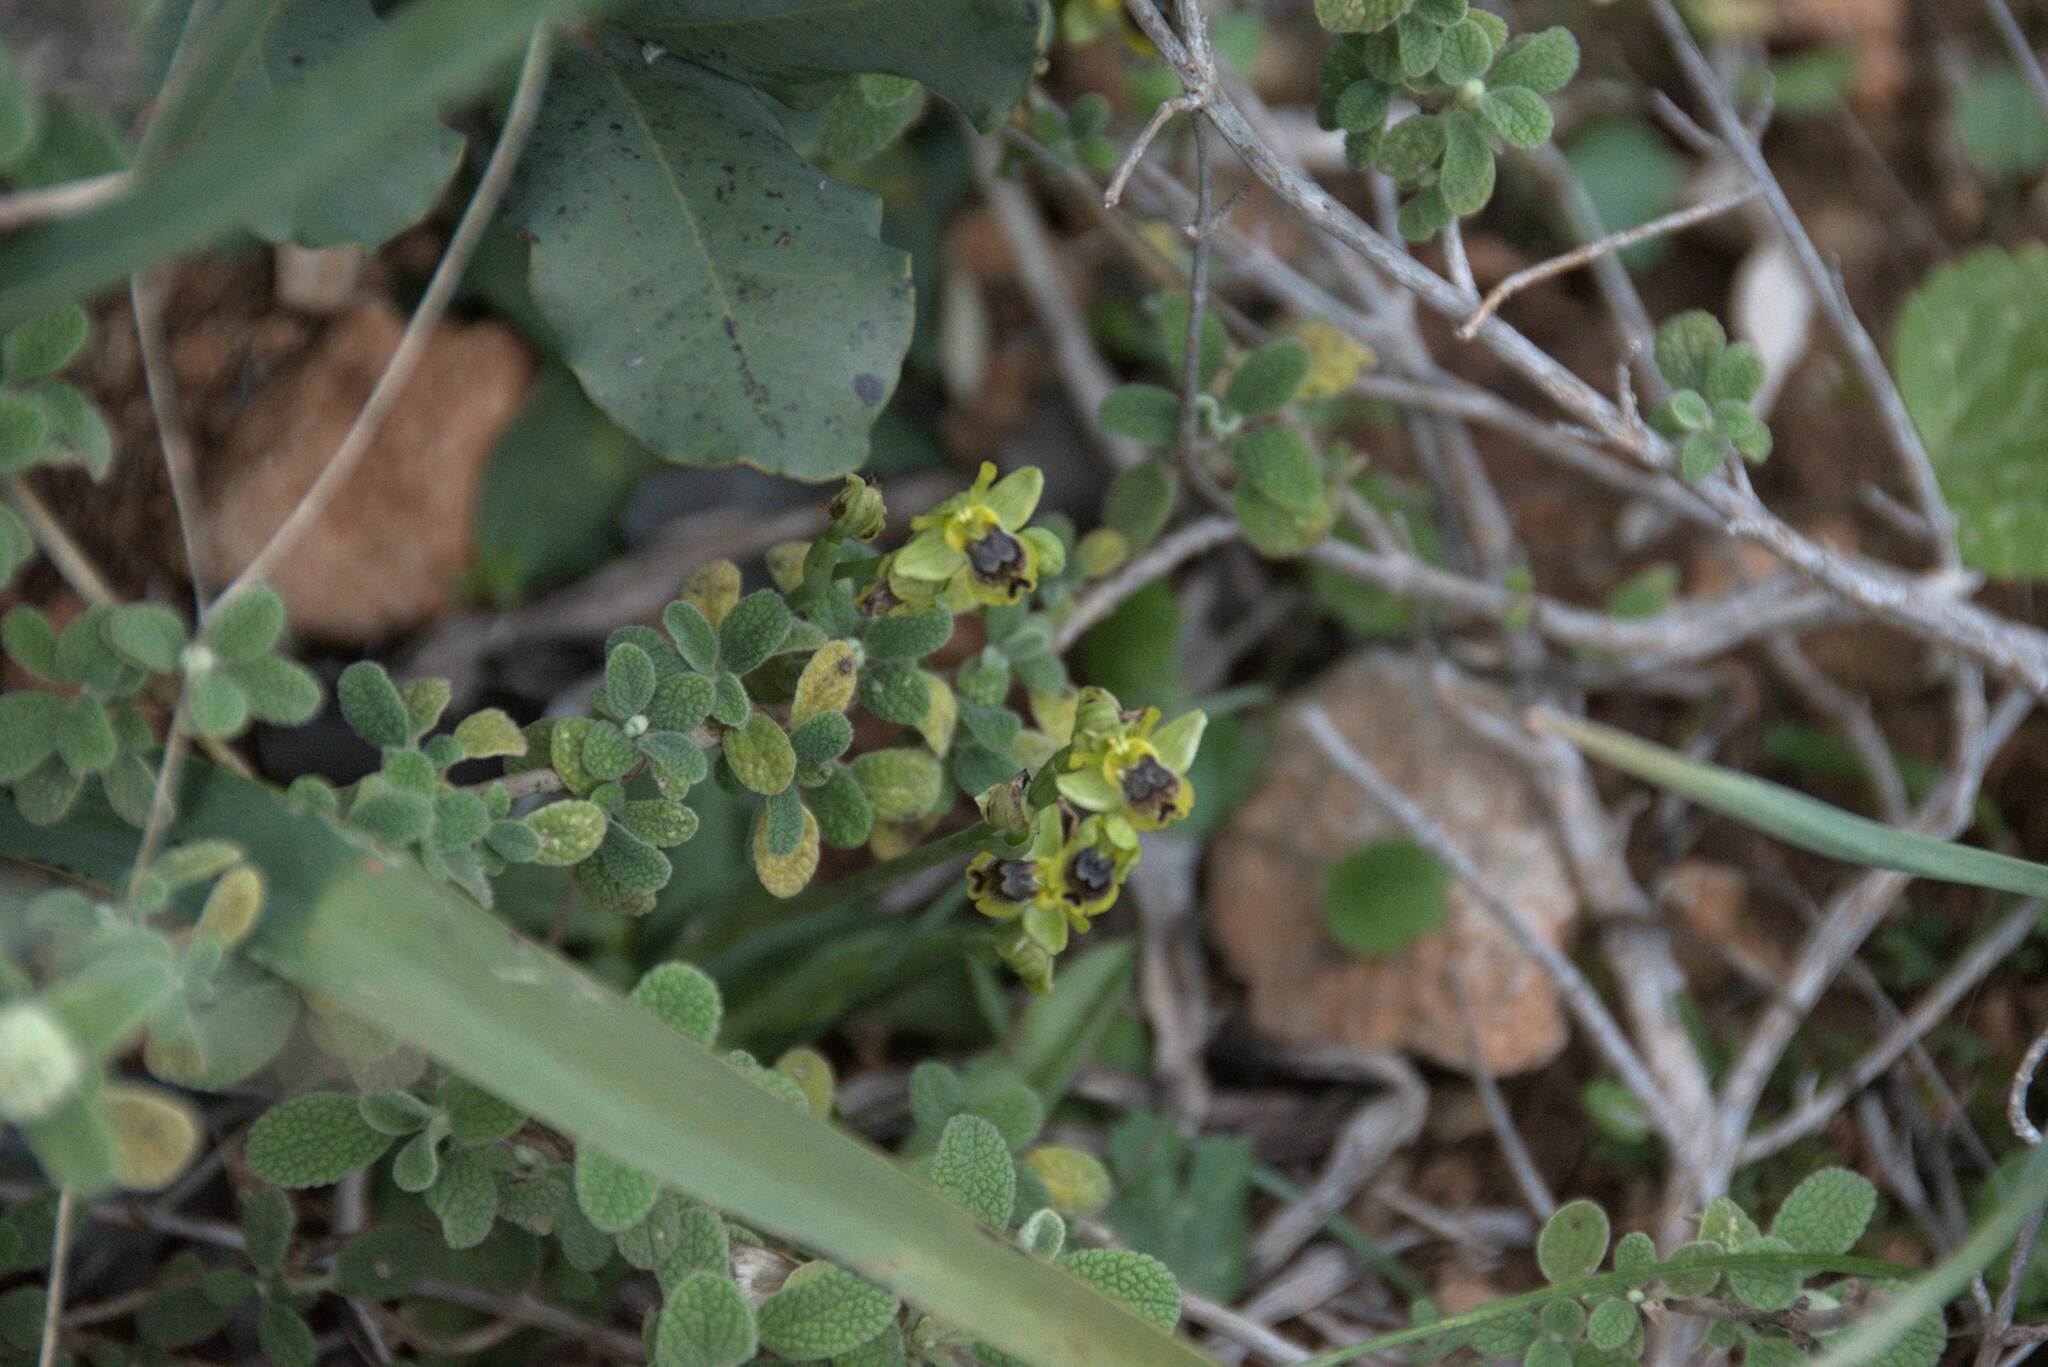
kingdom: Plantae
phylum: Tracheophyta
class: Liliopsida
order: Asparagales
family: Orchidaceae
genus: Ophrys
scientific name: Ophrys lutea
